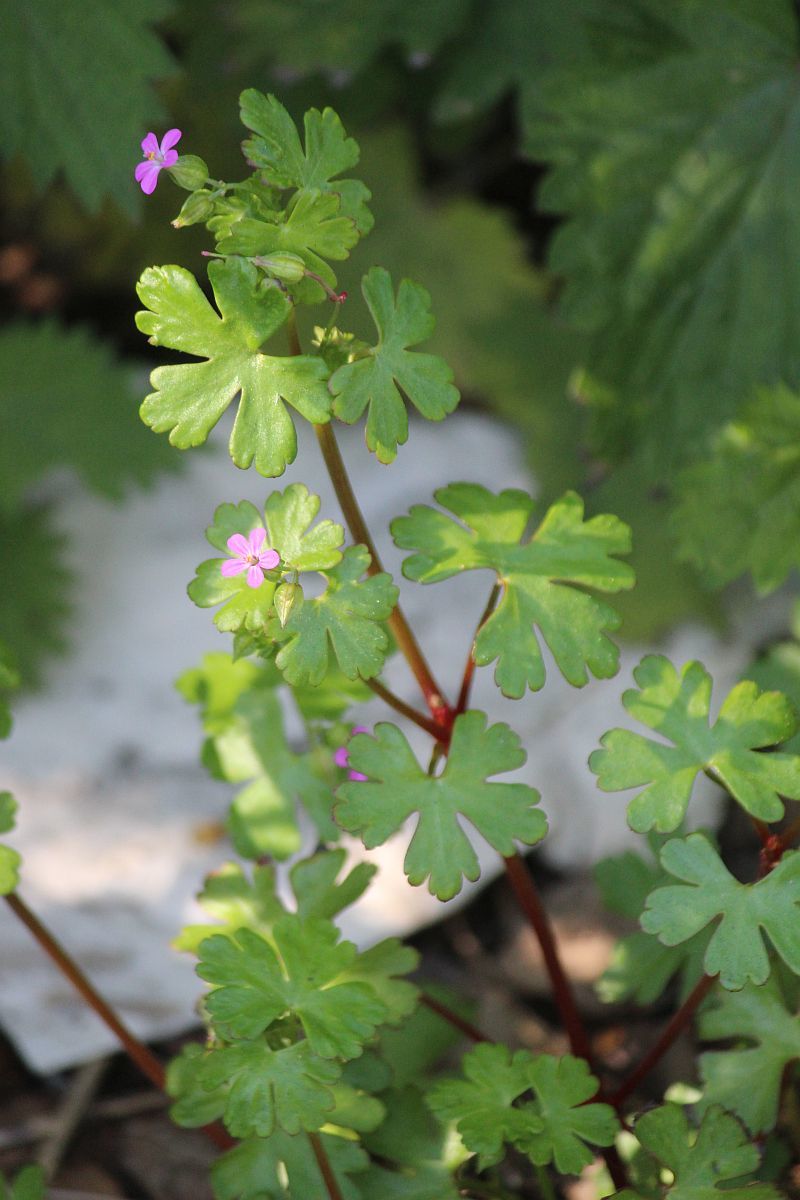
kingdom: Plantae
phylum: Tracheophyta
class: Magnoliopsida
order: Geraniales
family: Geraniaceae
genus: Geranium
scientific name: Geranium lucidum
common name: Shining crane's-bill
